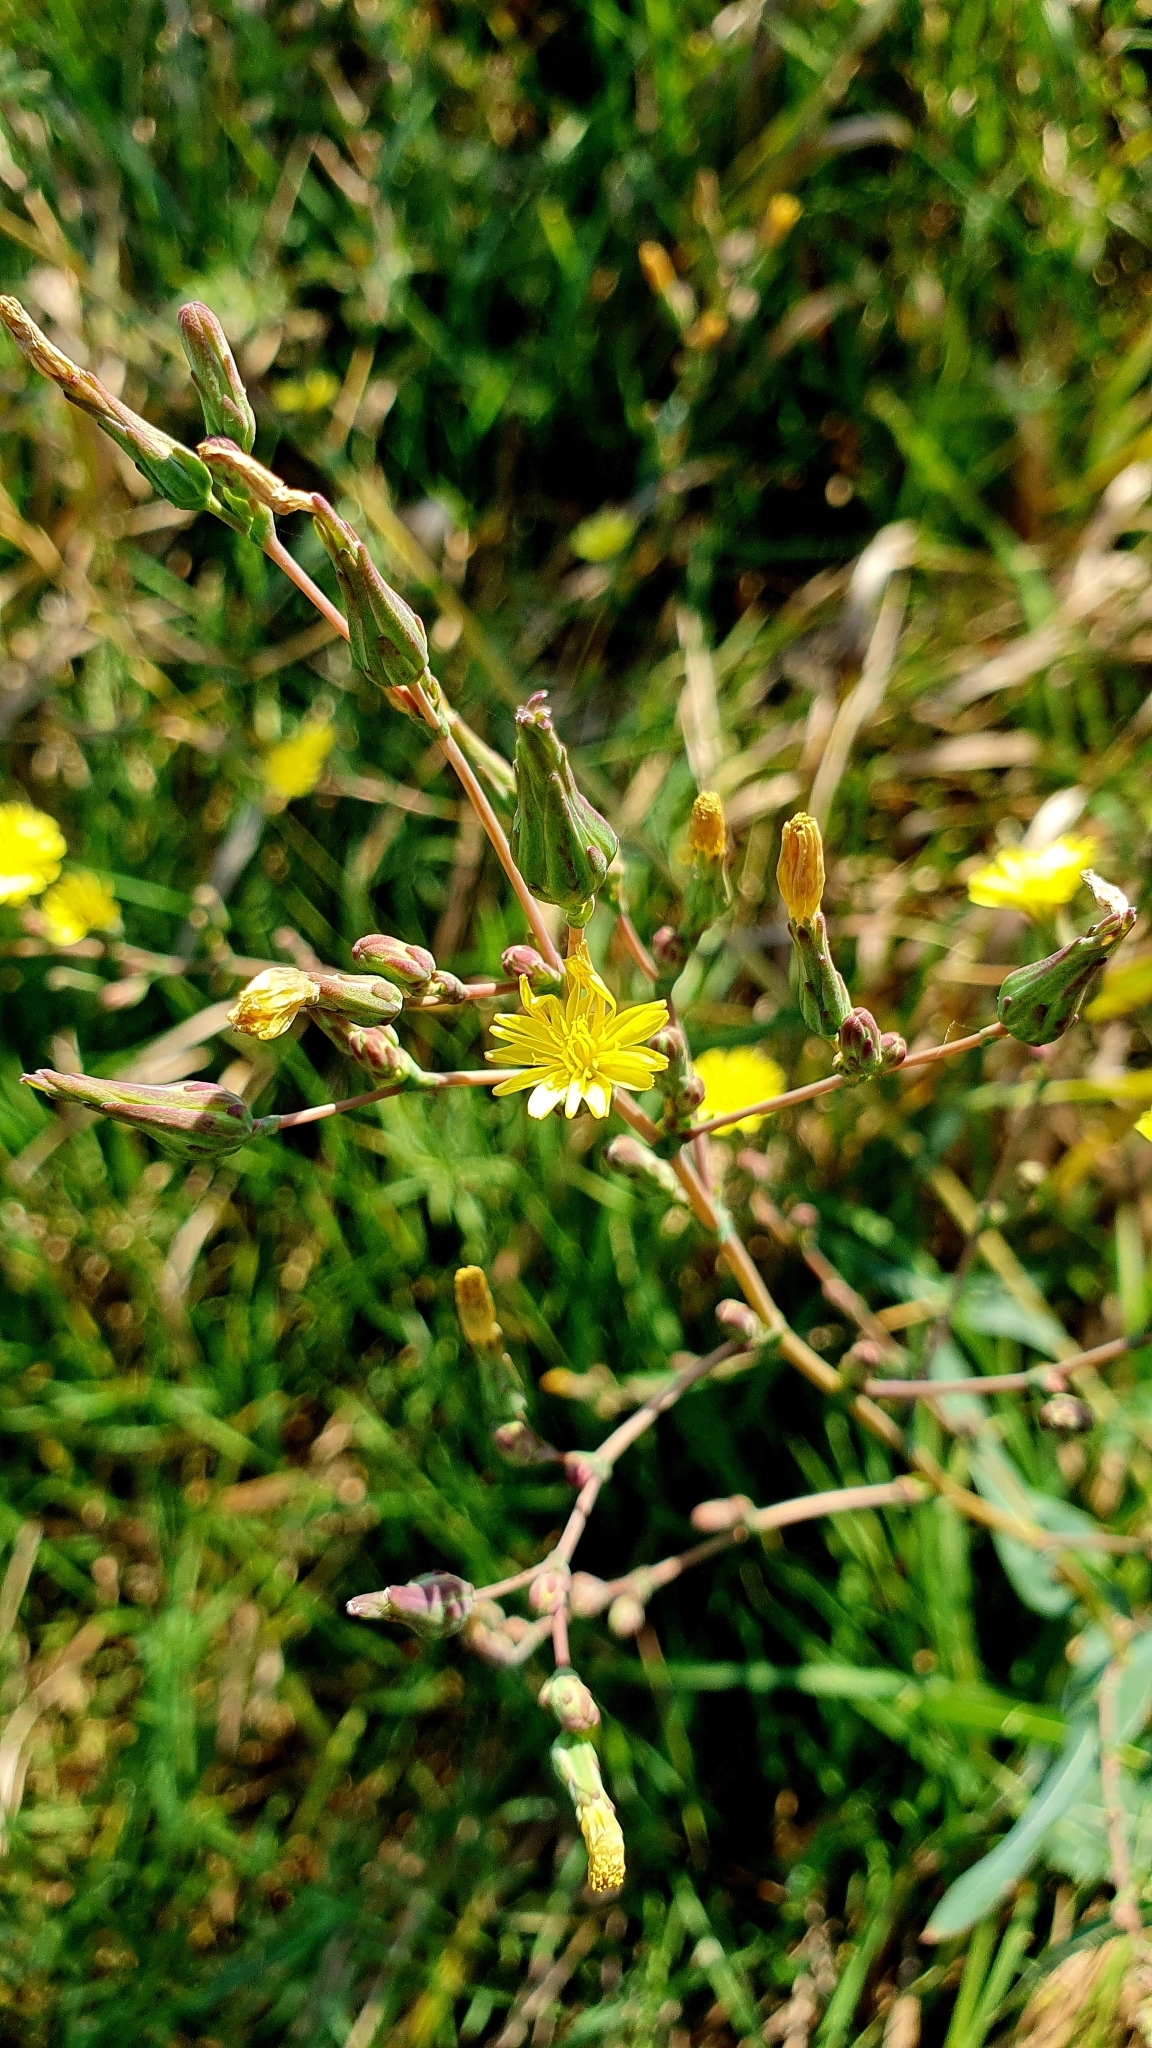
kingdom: Plantae
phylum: Tracheophyta
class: Magnoliopsida
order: Asterales
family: Asteraceae
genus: Lactuca
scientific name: Lactuca serriola
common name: Prickly lettuce
